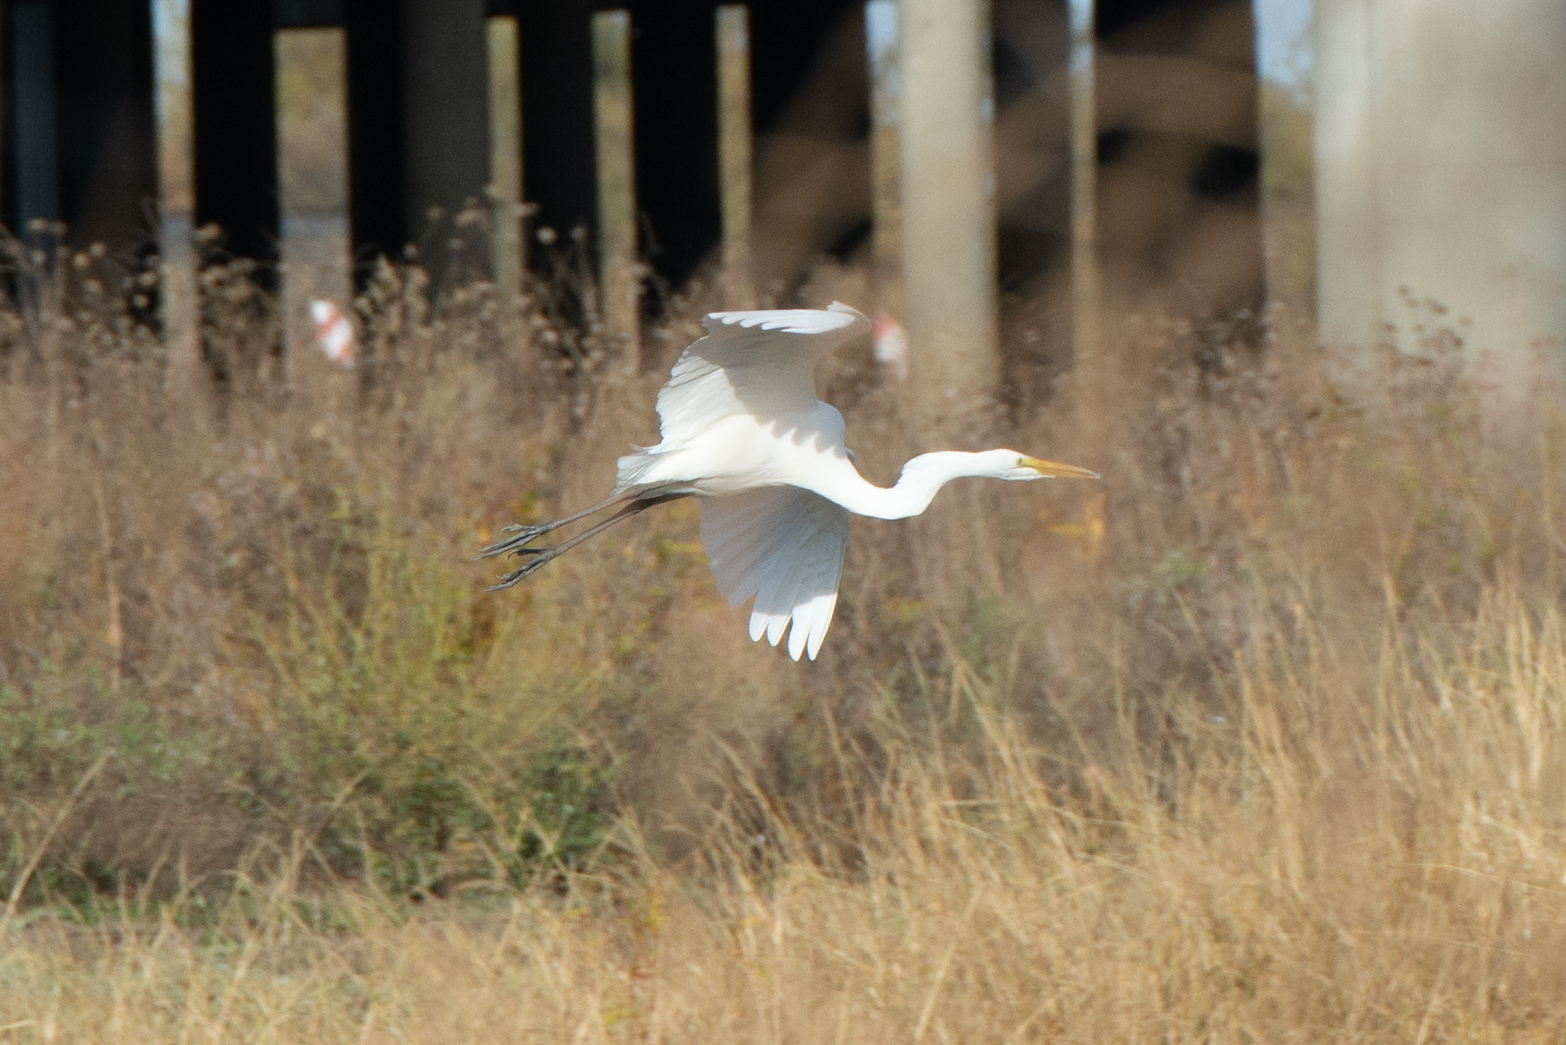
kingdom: Animalia
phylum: Chordata
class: Aves
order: Pelecaniformes
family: Ardeidae
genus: Ardea
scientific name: Ardea alba
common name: Great egret
